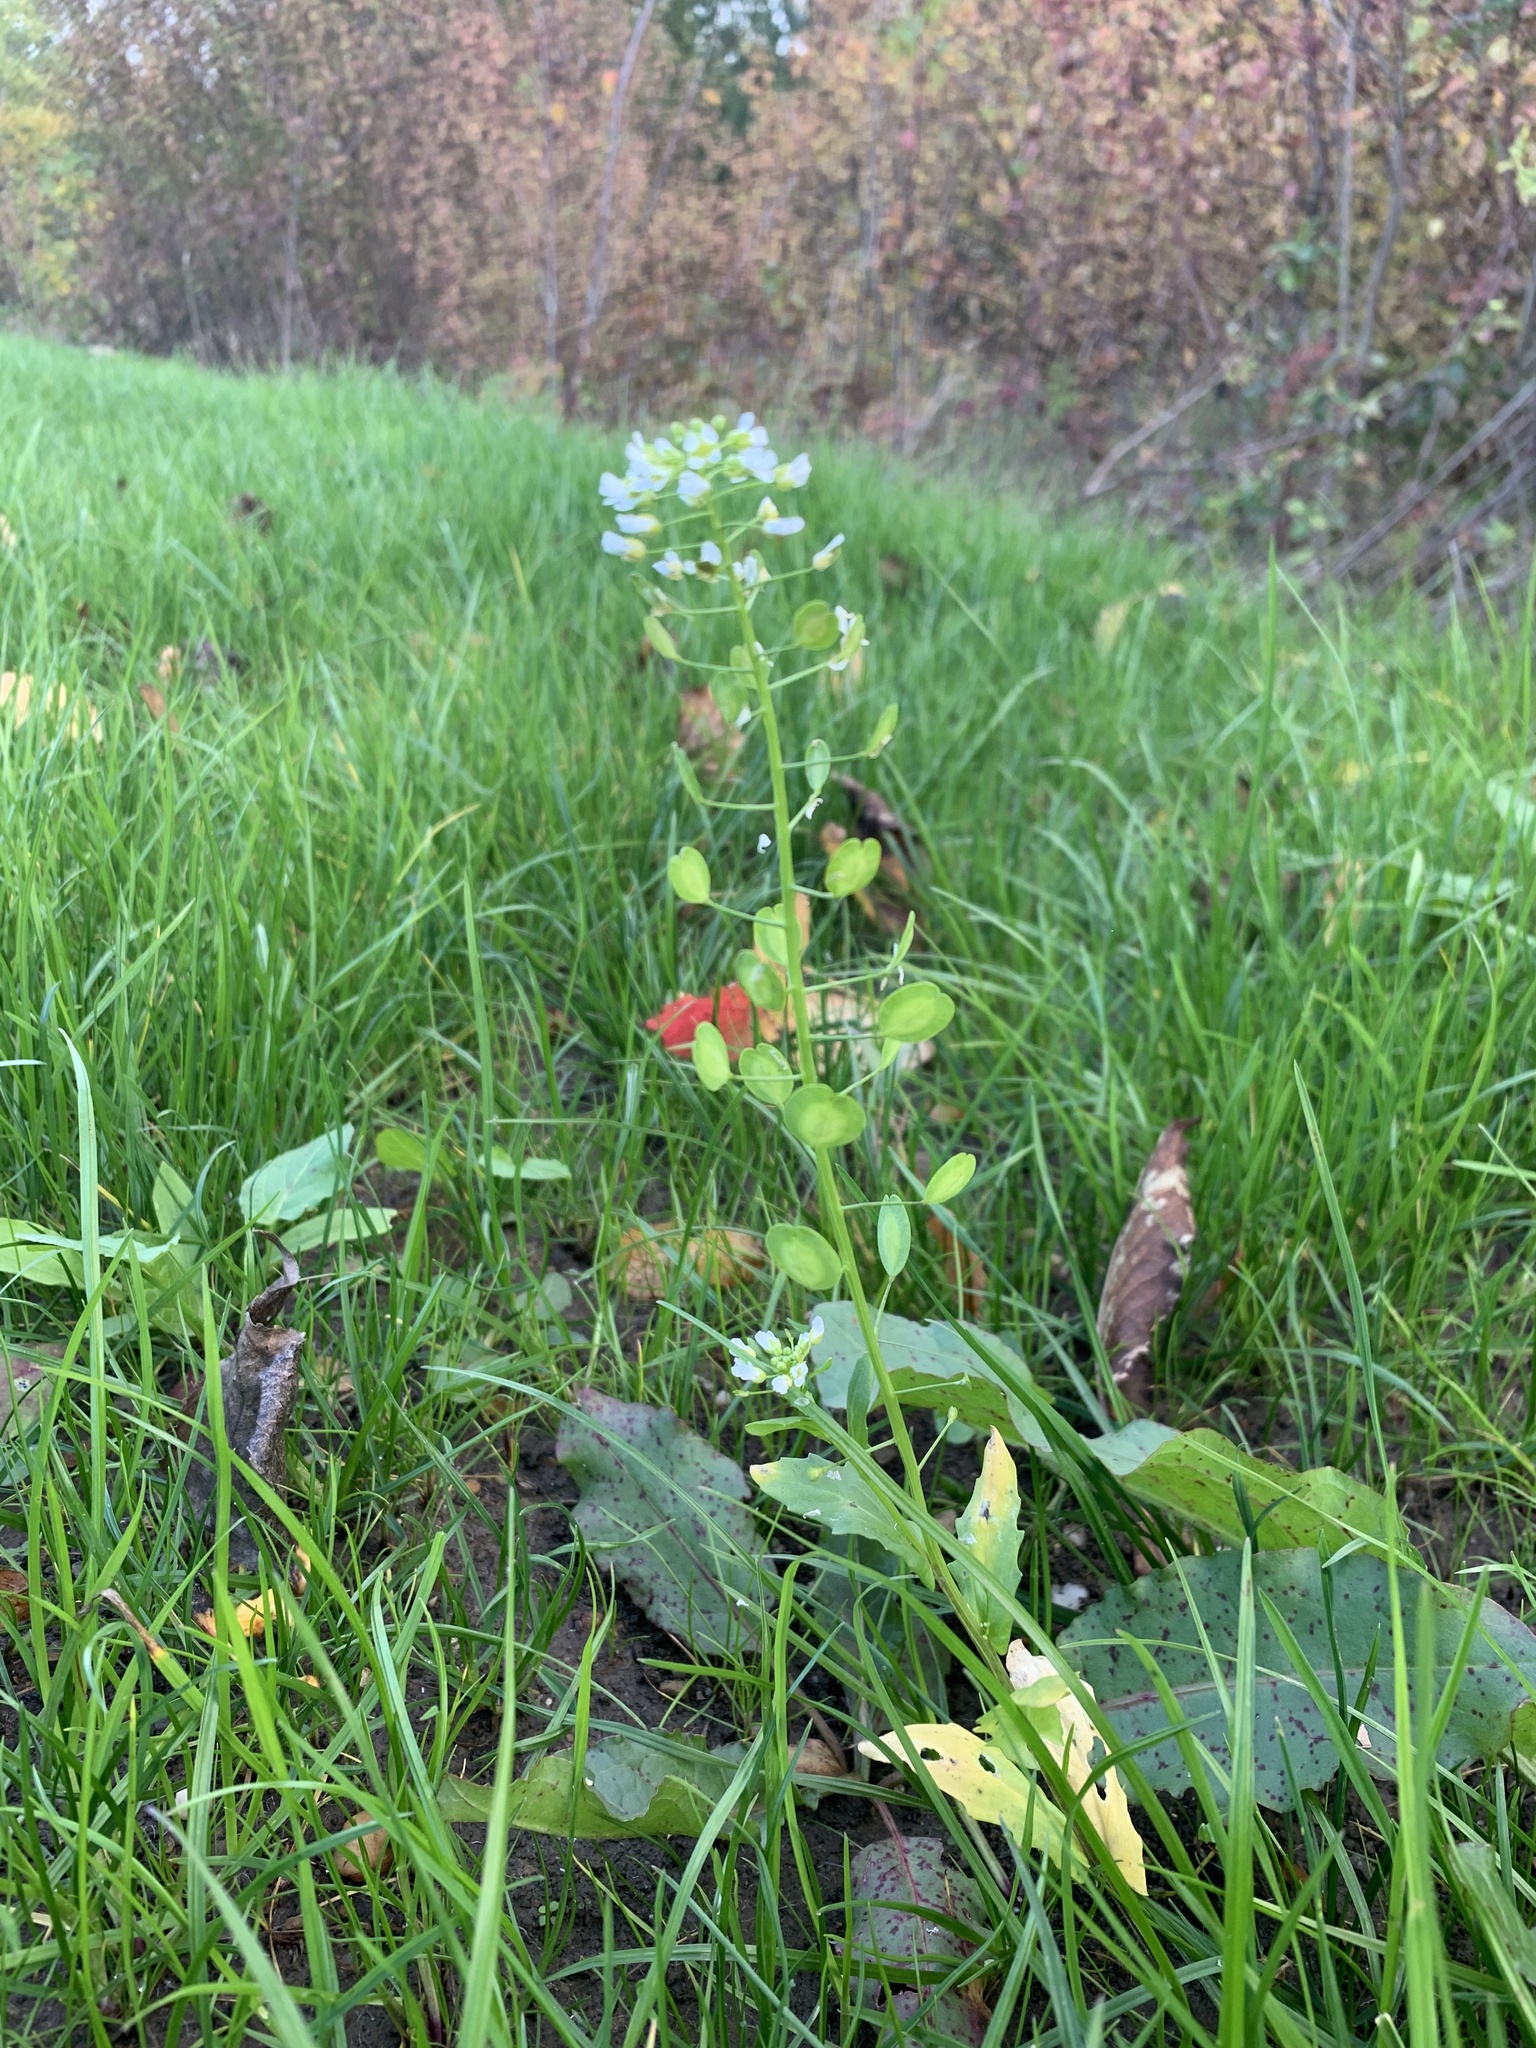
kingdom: Plantae
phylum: Tracheophyta
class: Magnoliopsida
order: Brassicales
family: Brassicaceae
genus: Thlaspi
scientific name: Thlaspi arvense
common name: Field pennycress
